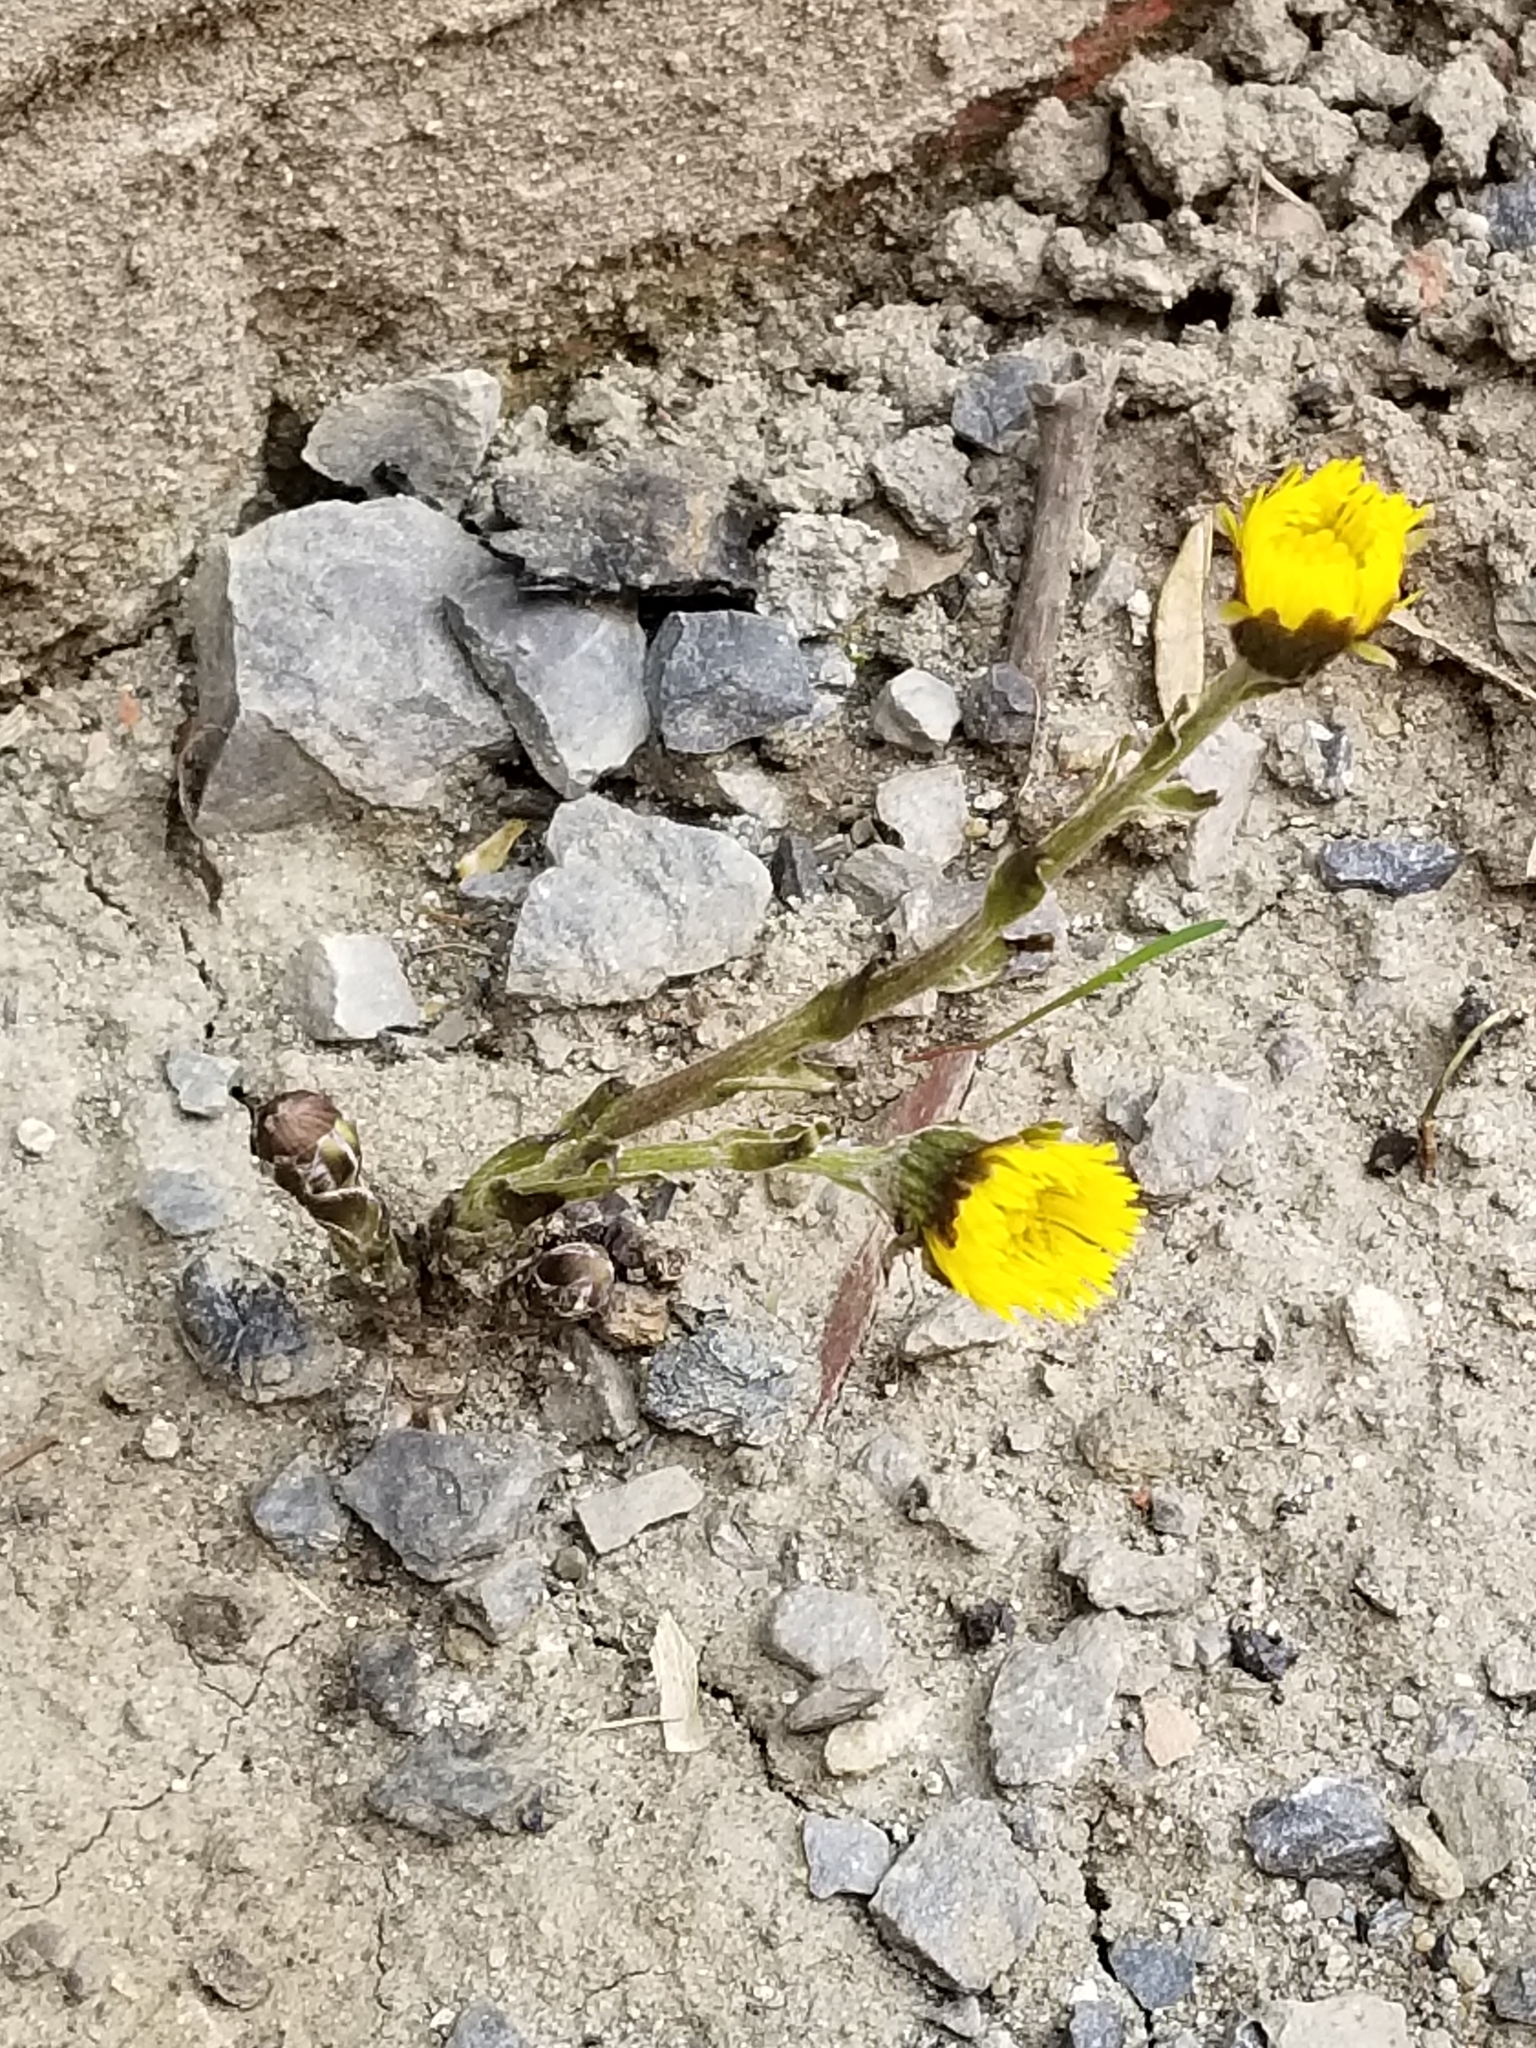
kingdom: Plantae
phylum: Tracheophyta
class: Magnoliopsida
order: Asterales
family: Asteraceae
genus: Tussilago
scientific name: Tussilago farfara
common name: Coltsfoot
